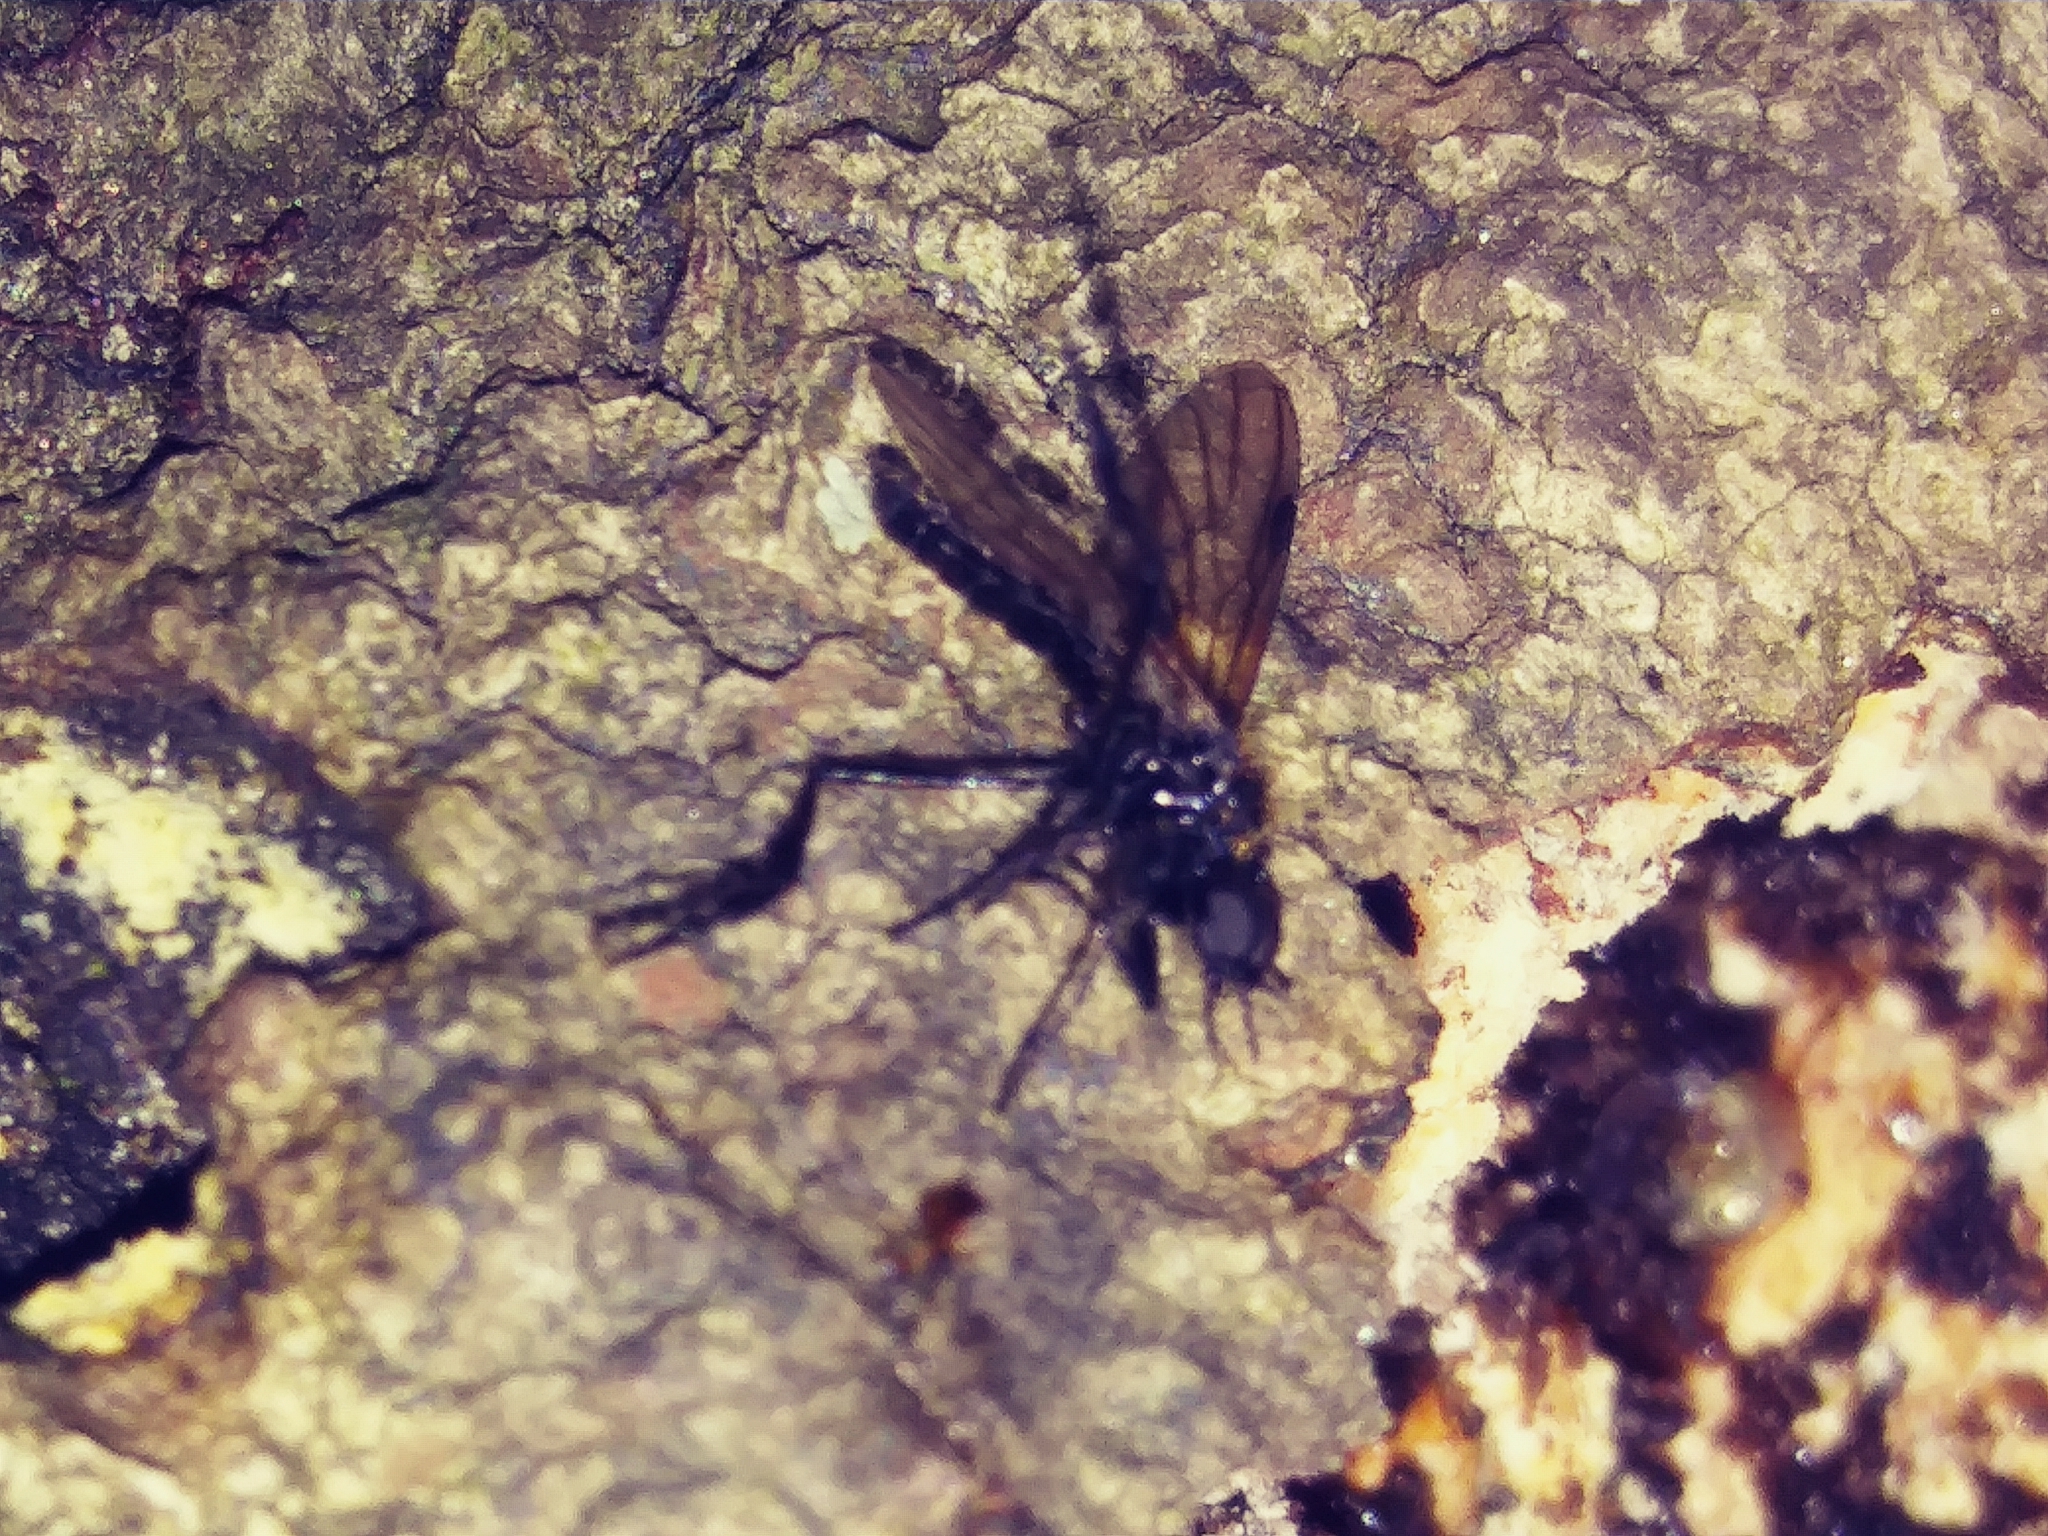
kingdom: Animalia
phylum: Arthropoda
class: Insecta
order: Diptera
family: Bibionidae
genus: Bibio
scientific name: Bibio longipes
